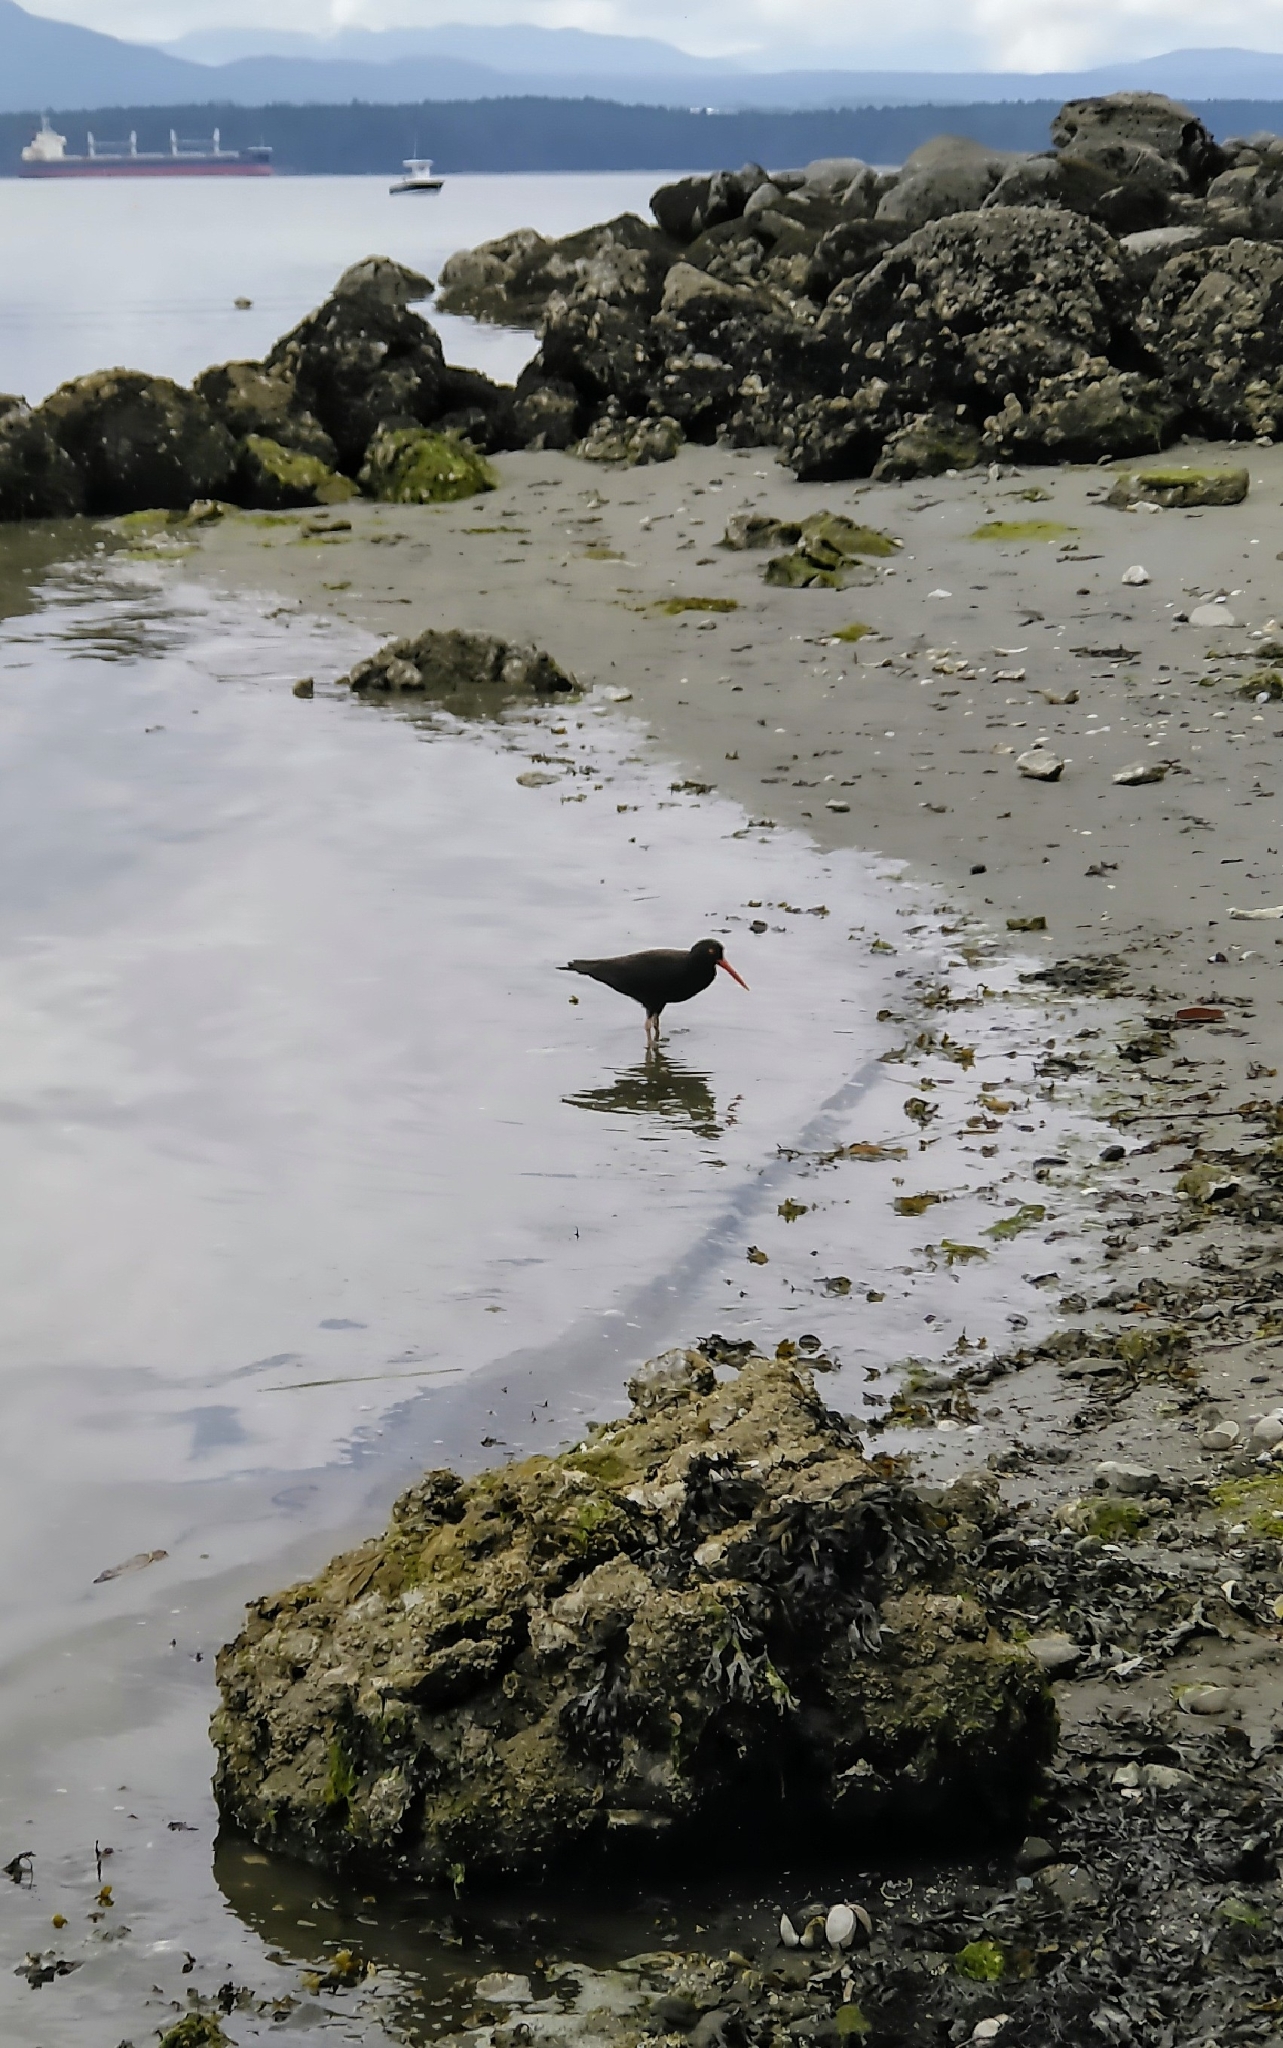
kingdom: Animalia
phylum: Chordata
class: Aves
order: Charadriiformes
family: Haematopodidae
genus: Haematopus
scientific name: Haematopus bachmani
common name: Black oystercatcher
